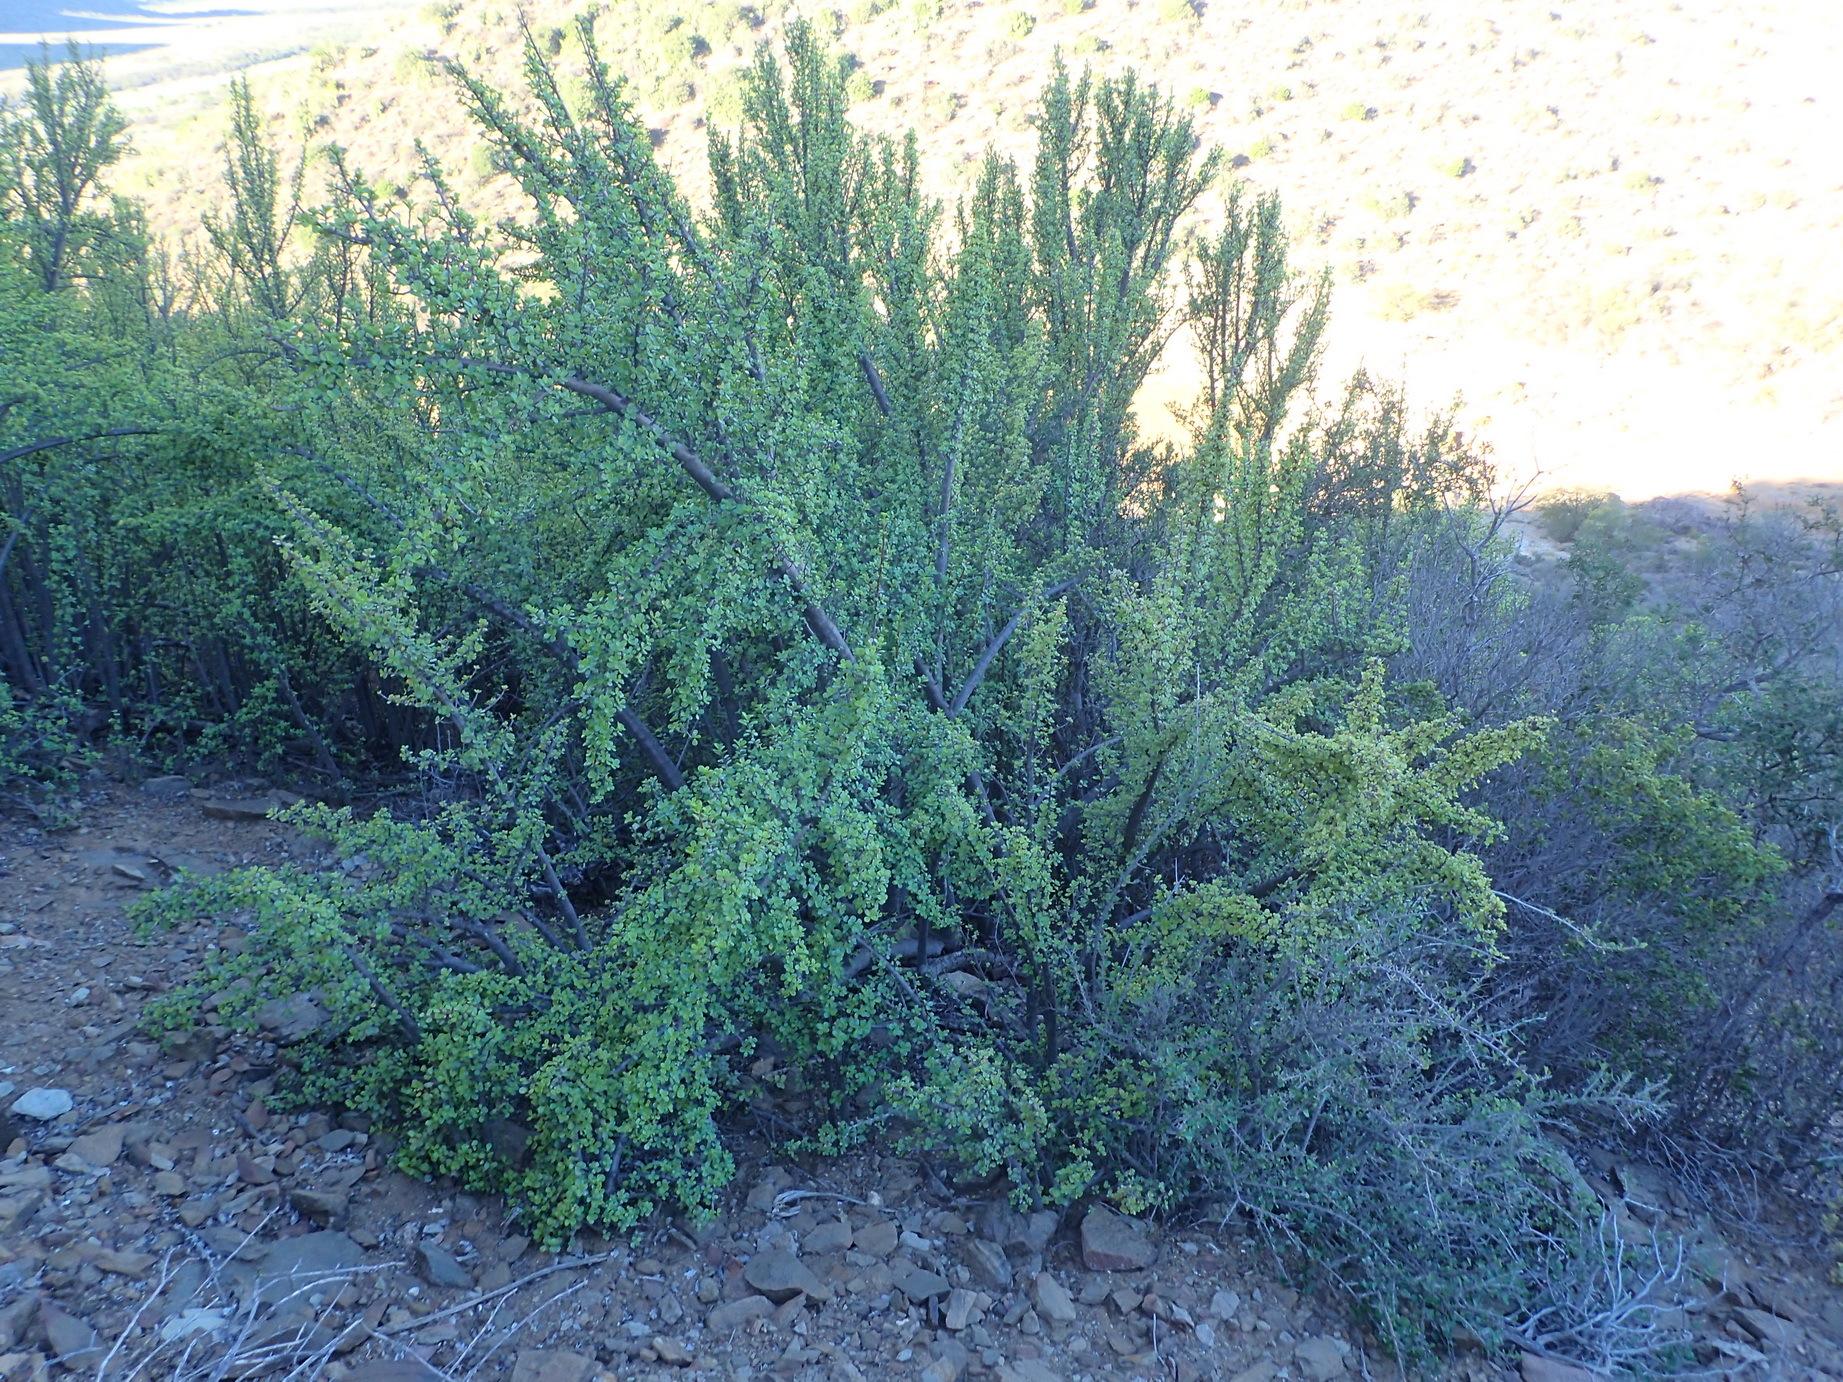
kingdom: Plantae
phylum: Tracheophyta
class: Magnoliopsida
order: Caryophyllales
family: Didiereaceae
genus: Portulacaria
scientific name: Portulacaria afra
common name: Elephant-bush
